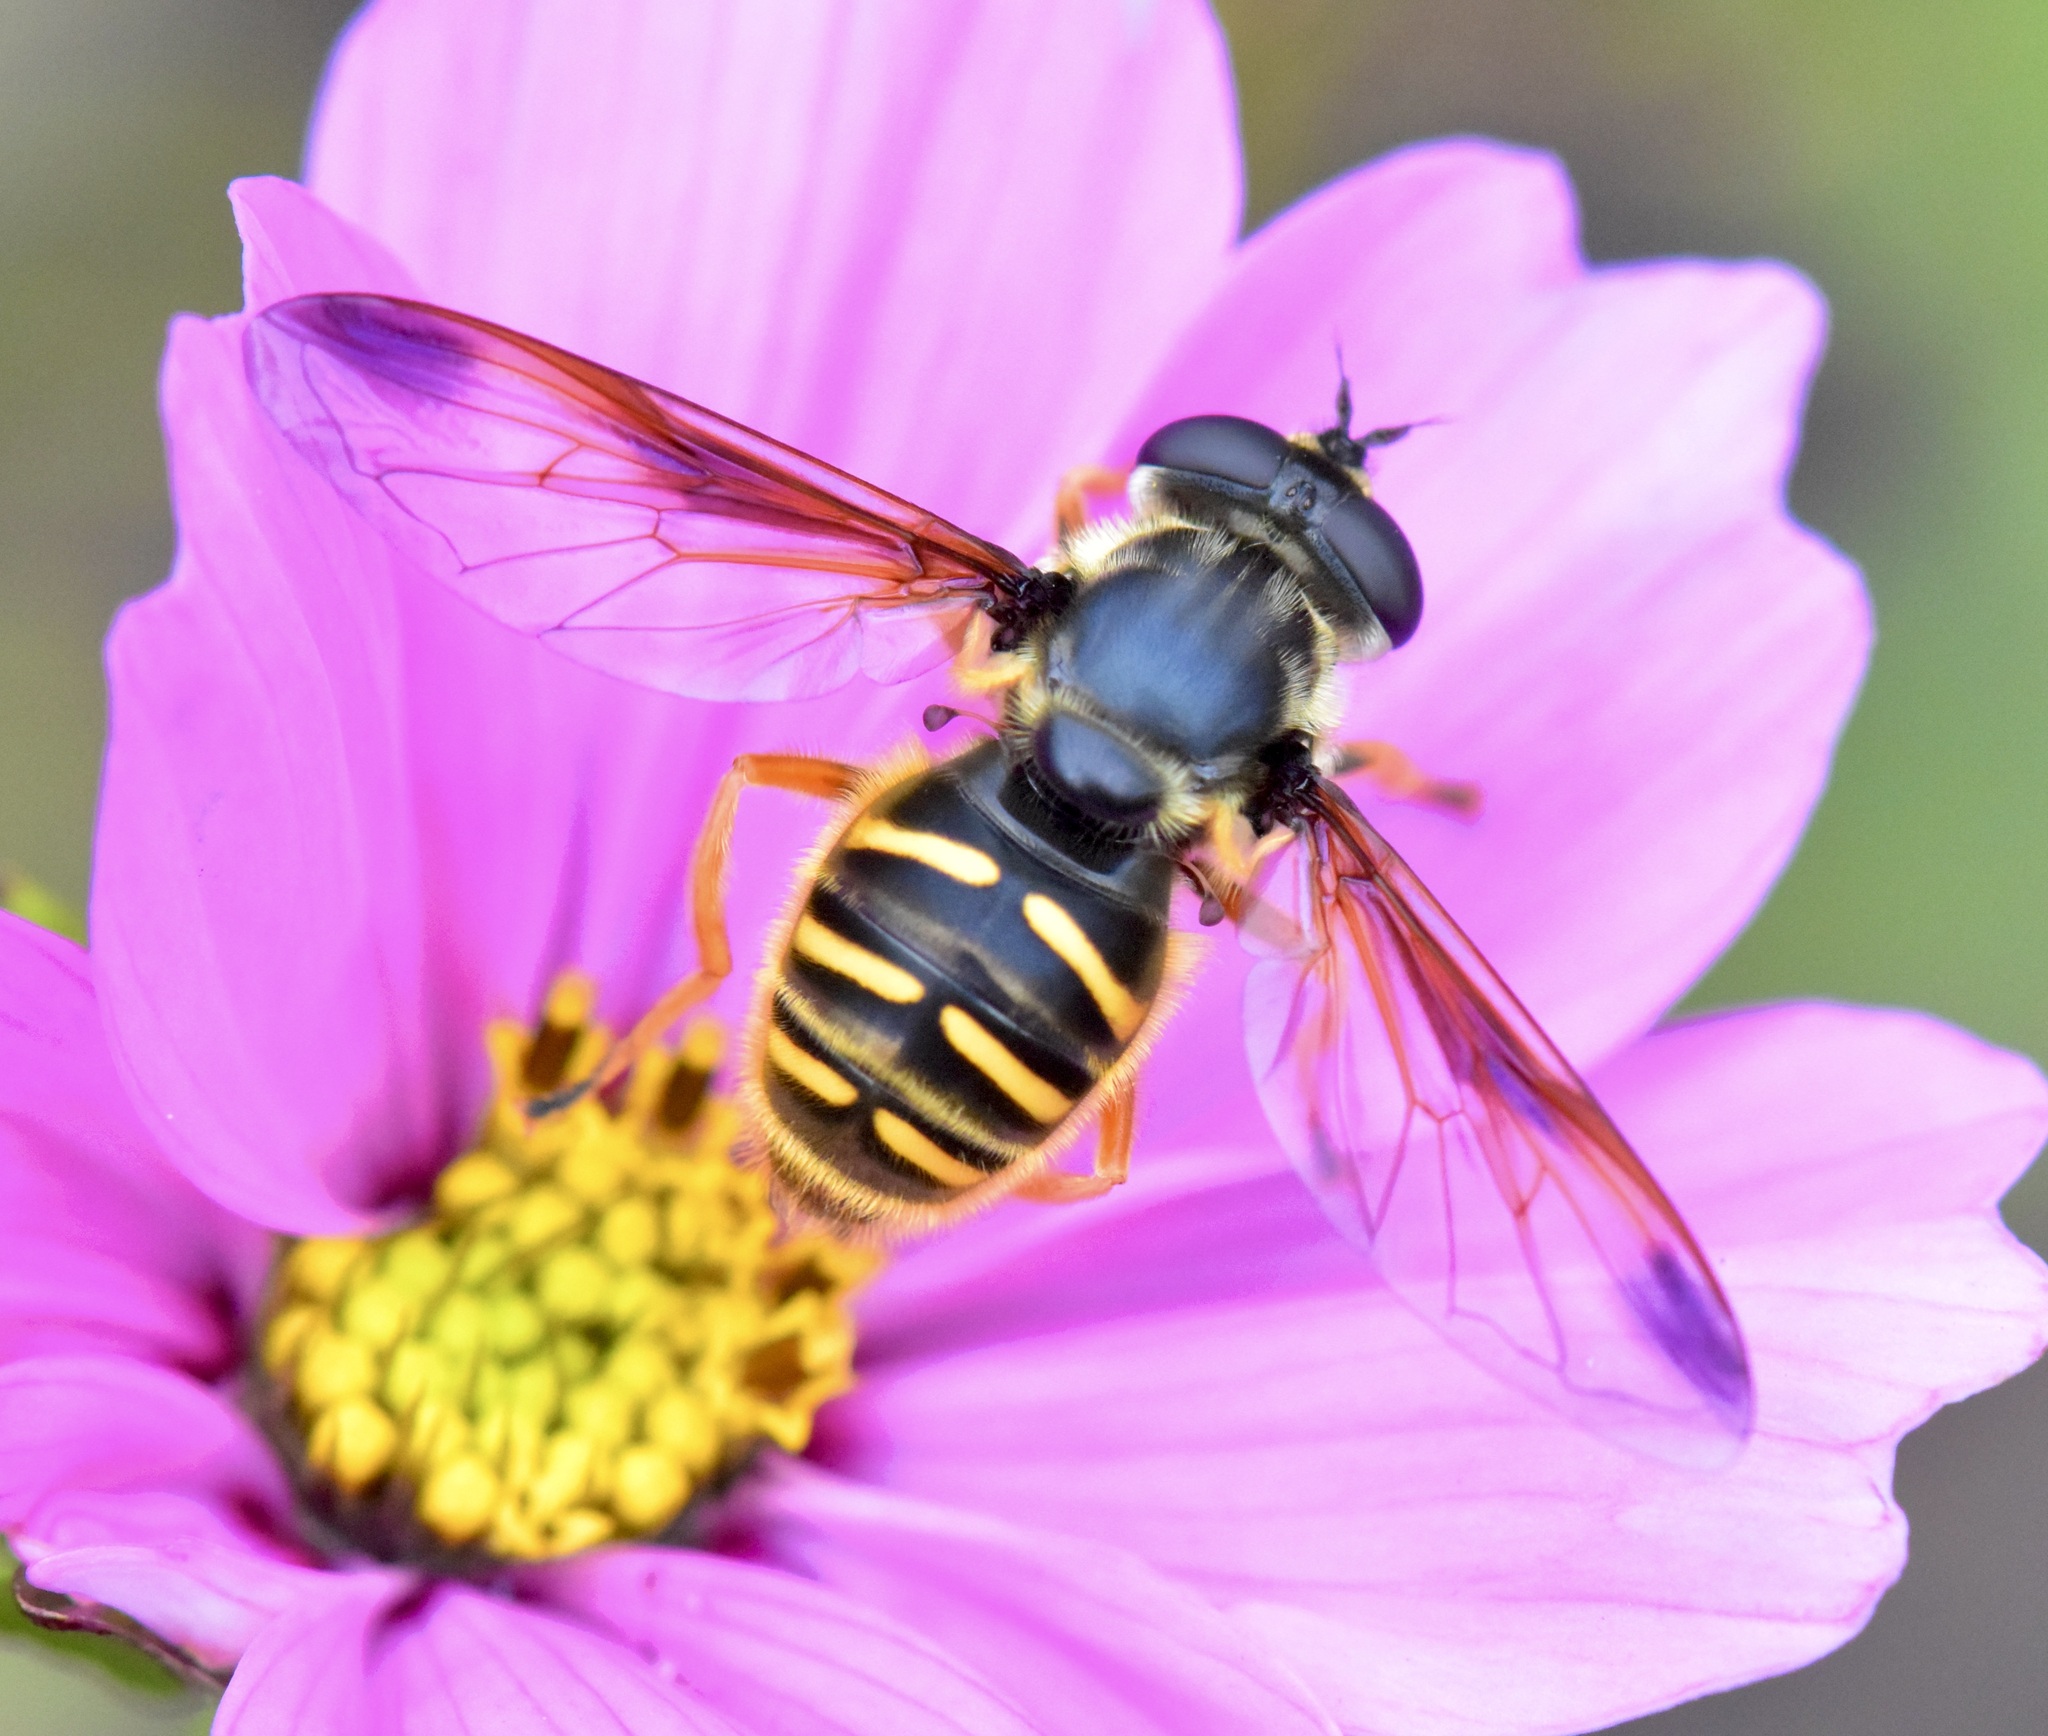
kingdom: Animalia
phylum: Arthropoda
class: Insecta
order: Diptera
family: Syrphidae
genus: Sericomyia
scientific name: Sericomyia chrysotoxoides
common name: Oblique-banded pond fly
